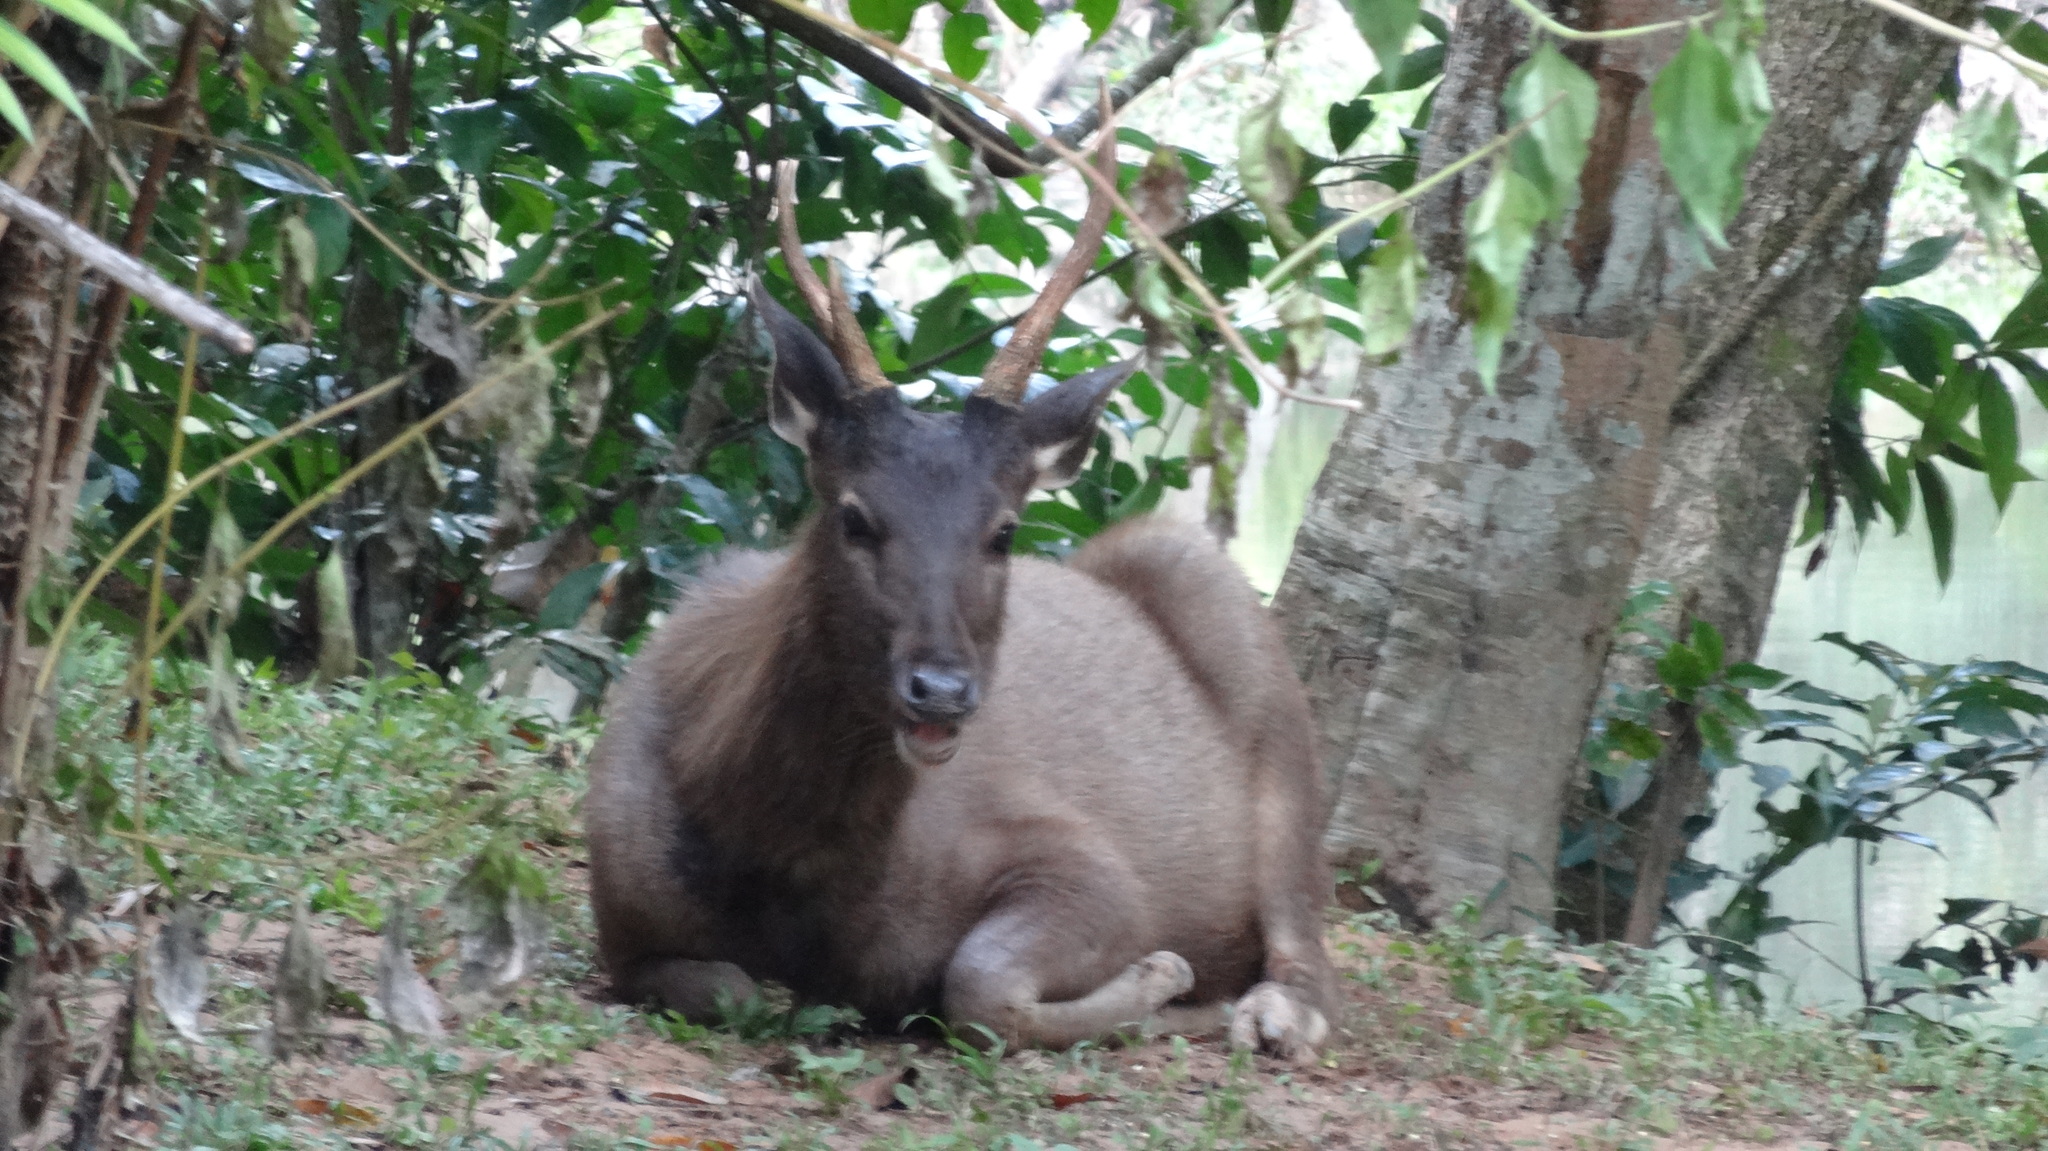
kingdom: Animalia
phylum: Chordata
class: Mammalia
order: Artiodactyla
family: Cervidae
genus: Rusa
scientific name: Rusa unicolor
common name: Sambar
